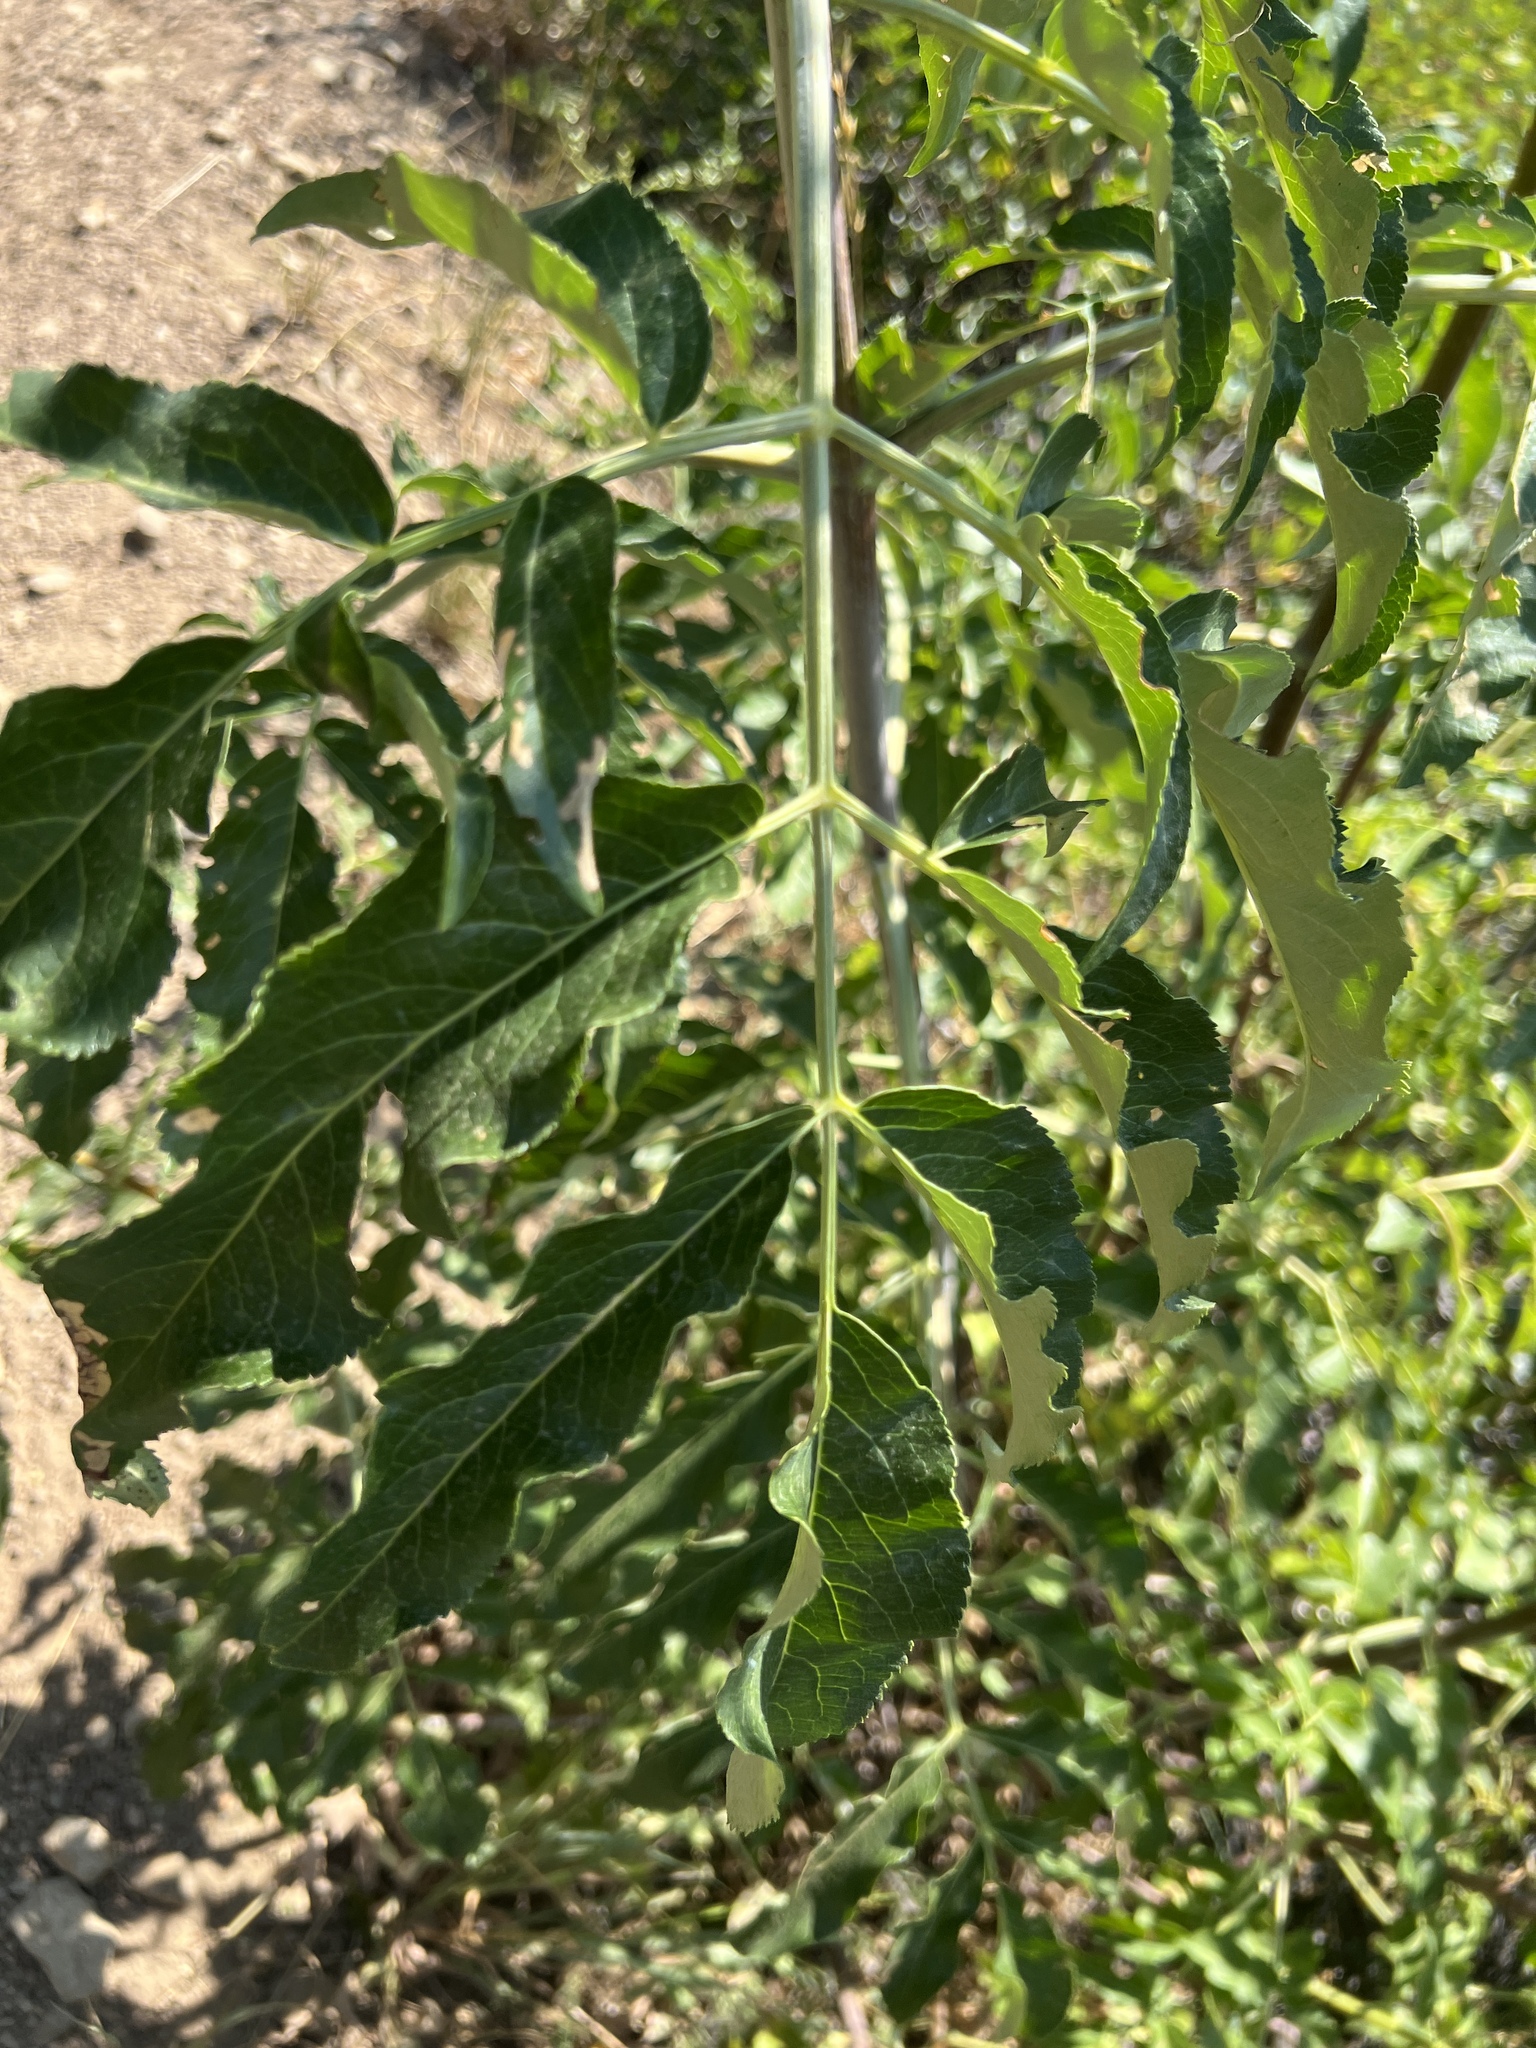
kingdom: Plantae
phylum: Tracheophyta
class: Magnoliopsida
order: Dipsacales
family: Viburnaceae
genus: Sambucus
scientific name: Sambucus cerulea
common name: Blue elder
